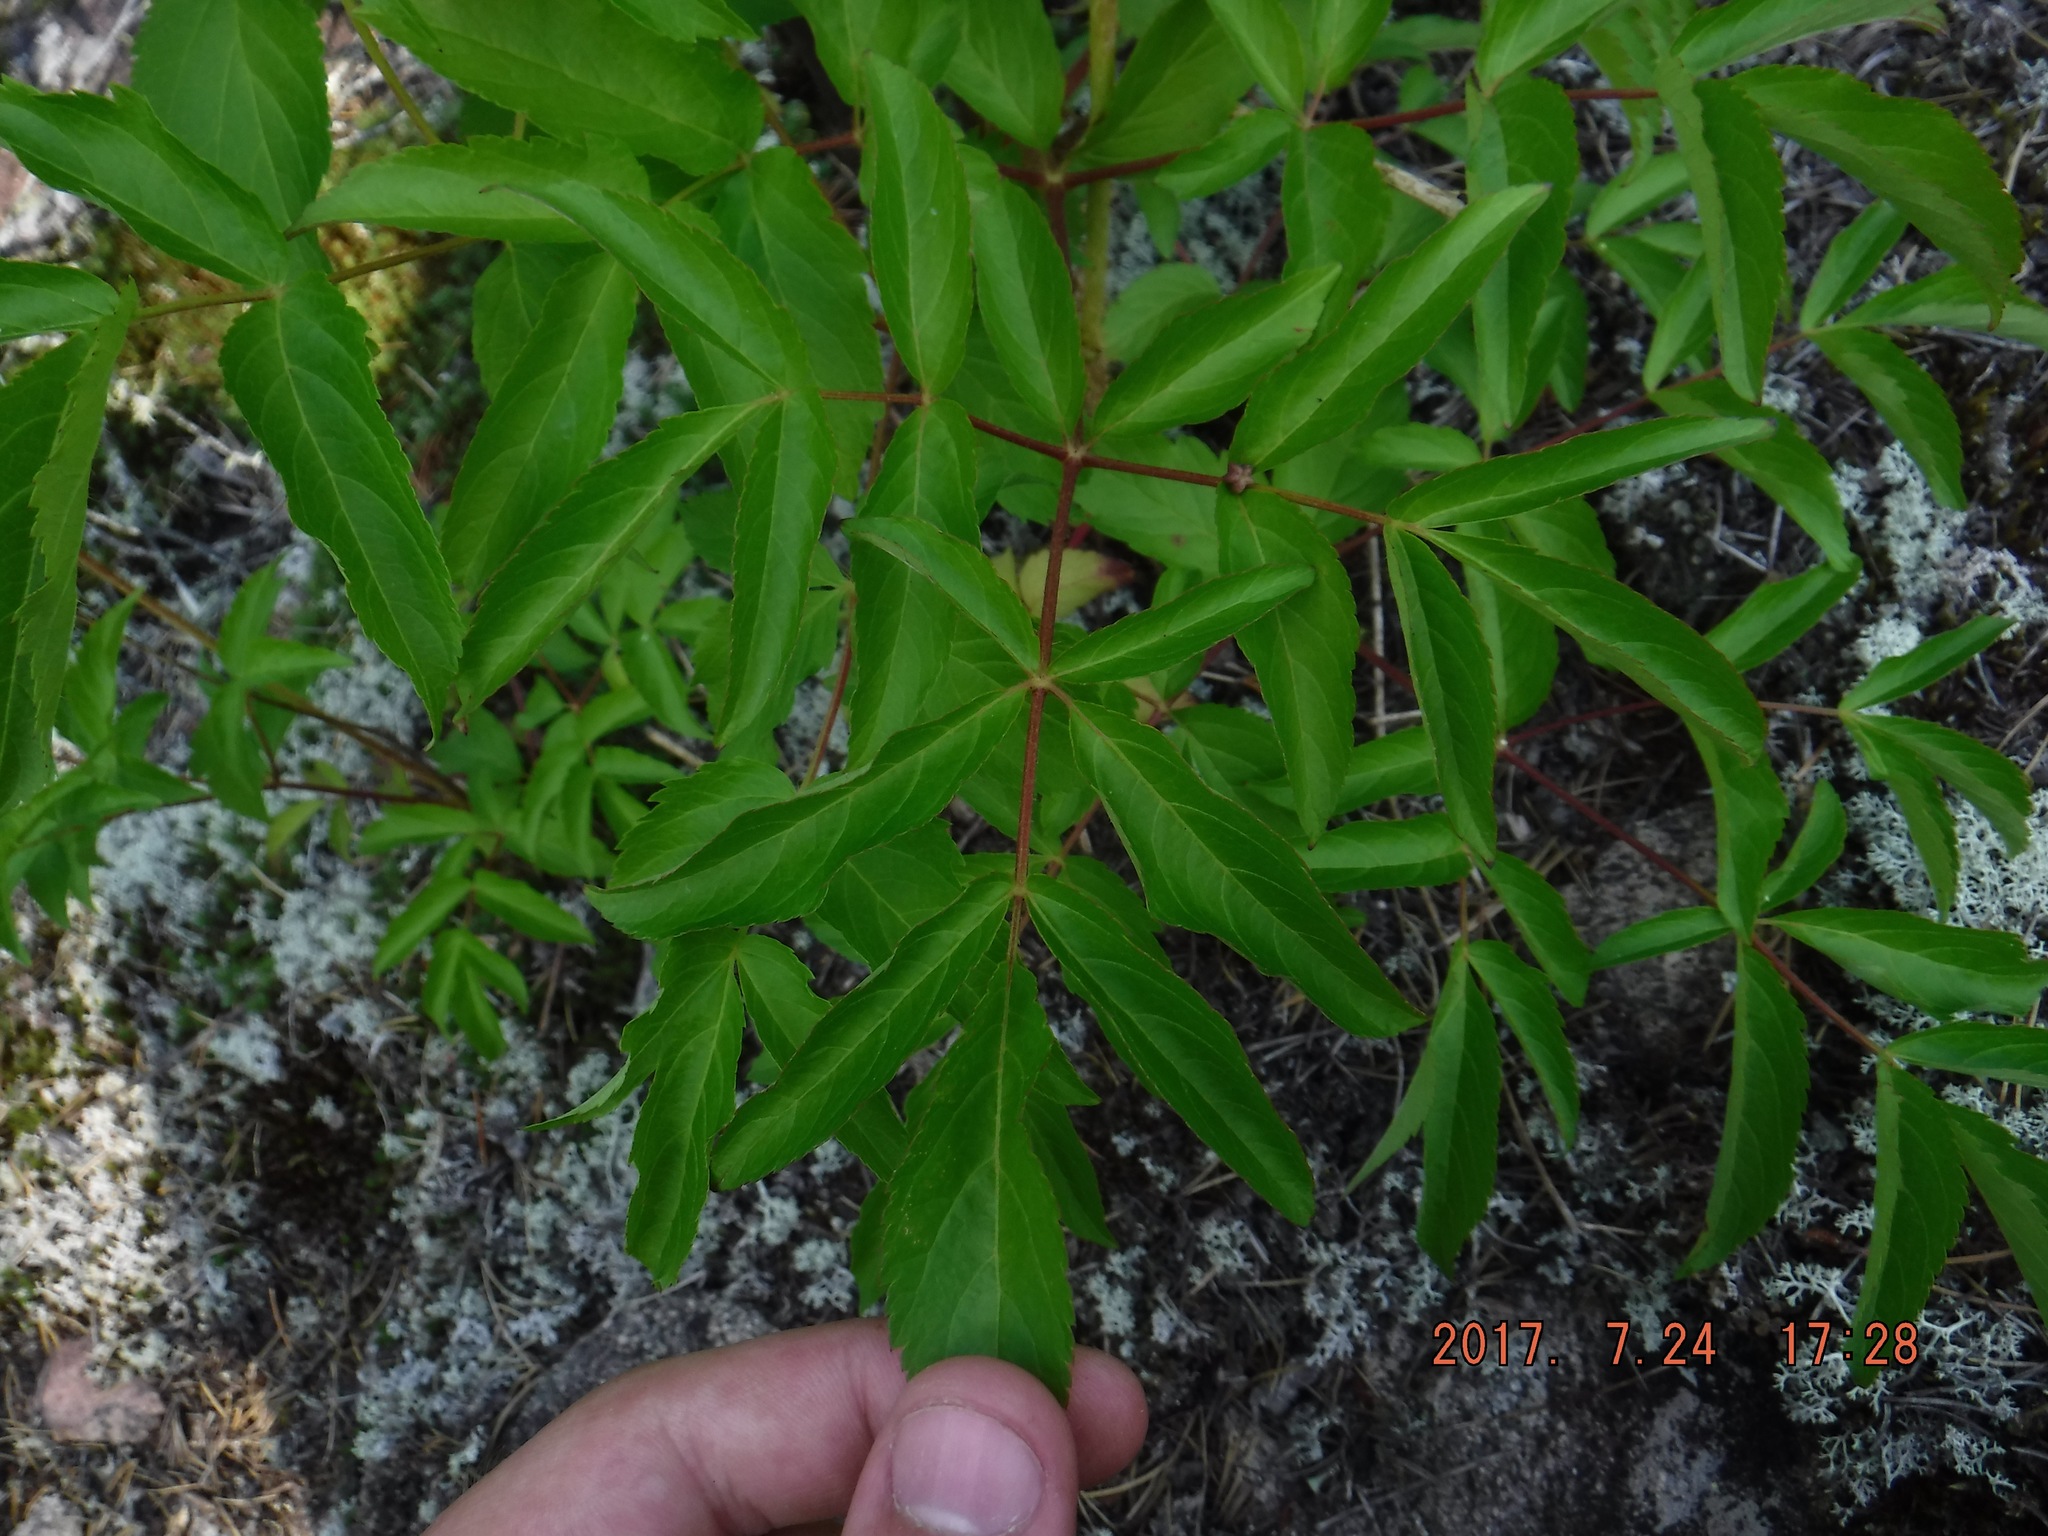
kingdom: Plantae
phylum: Tracheophyta
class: Magnoliopsida
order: Apiales
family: Araliaceae
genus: Aralia
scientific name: Aralia hispida
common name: Bristly sarsaparilla
